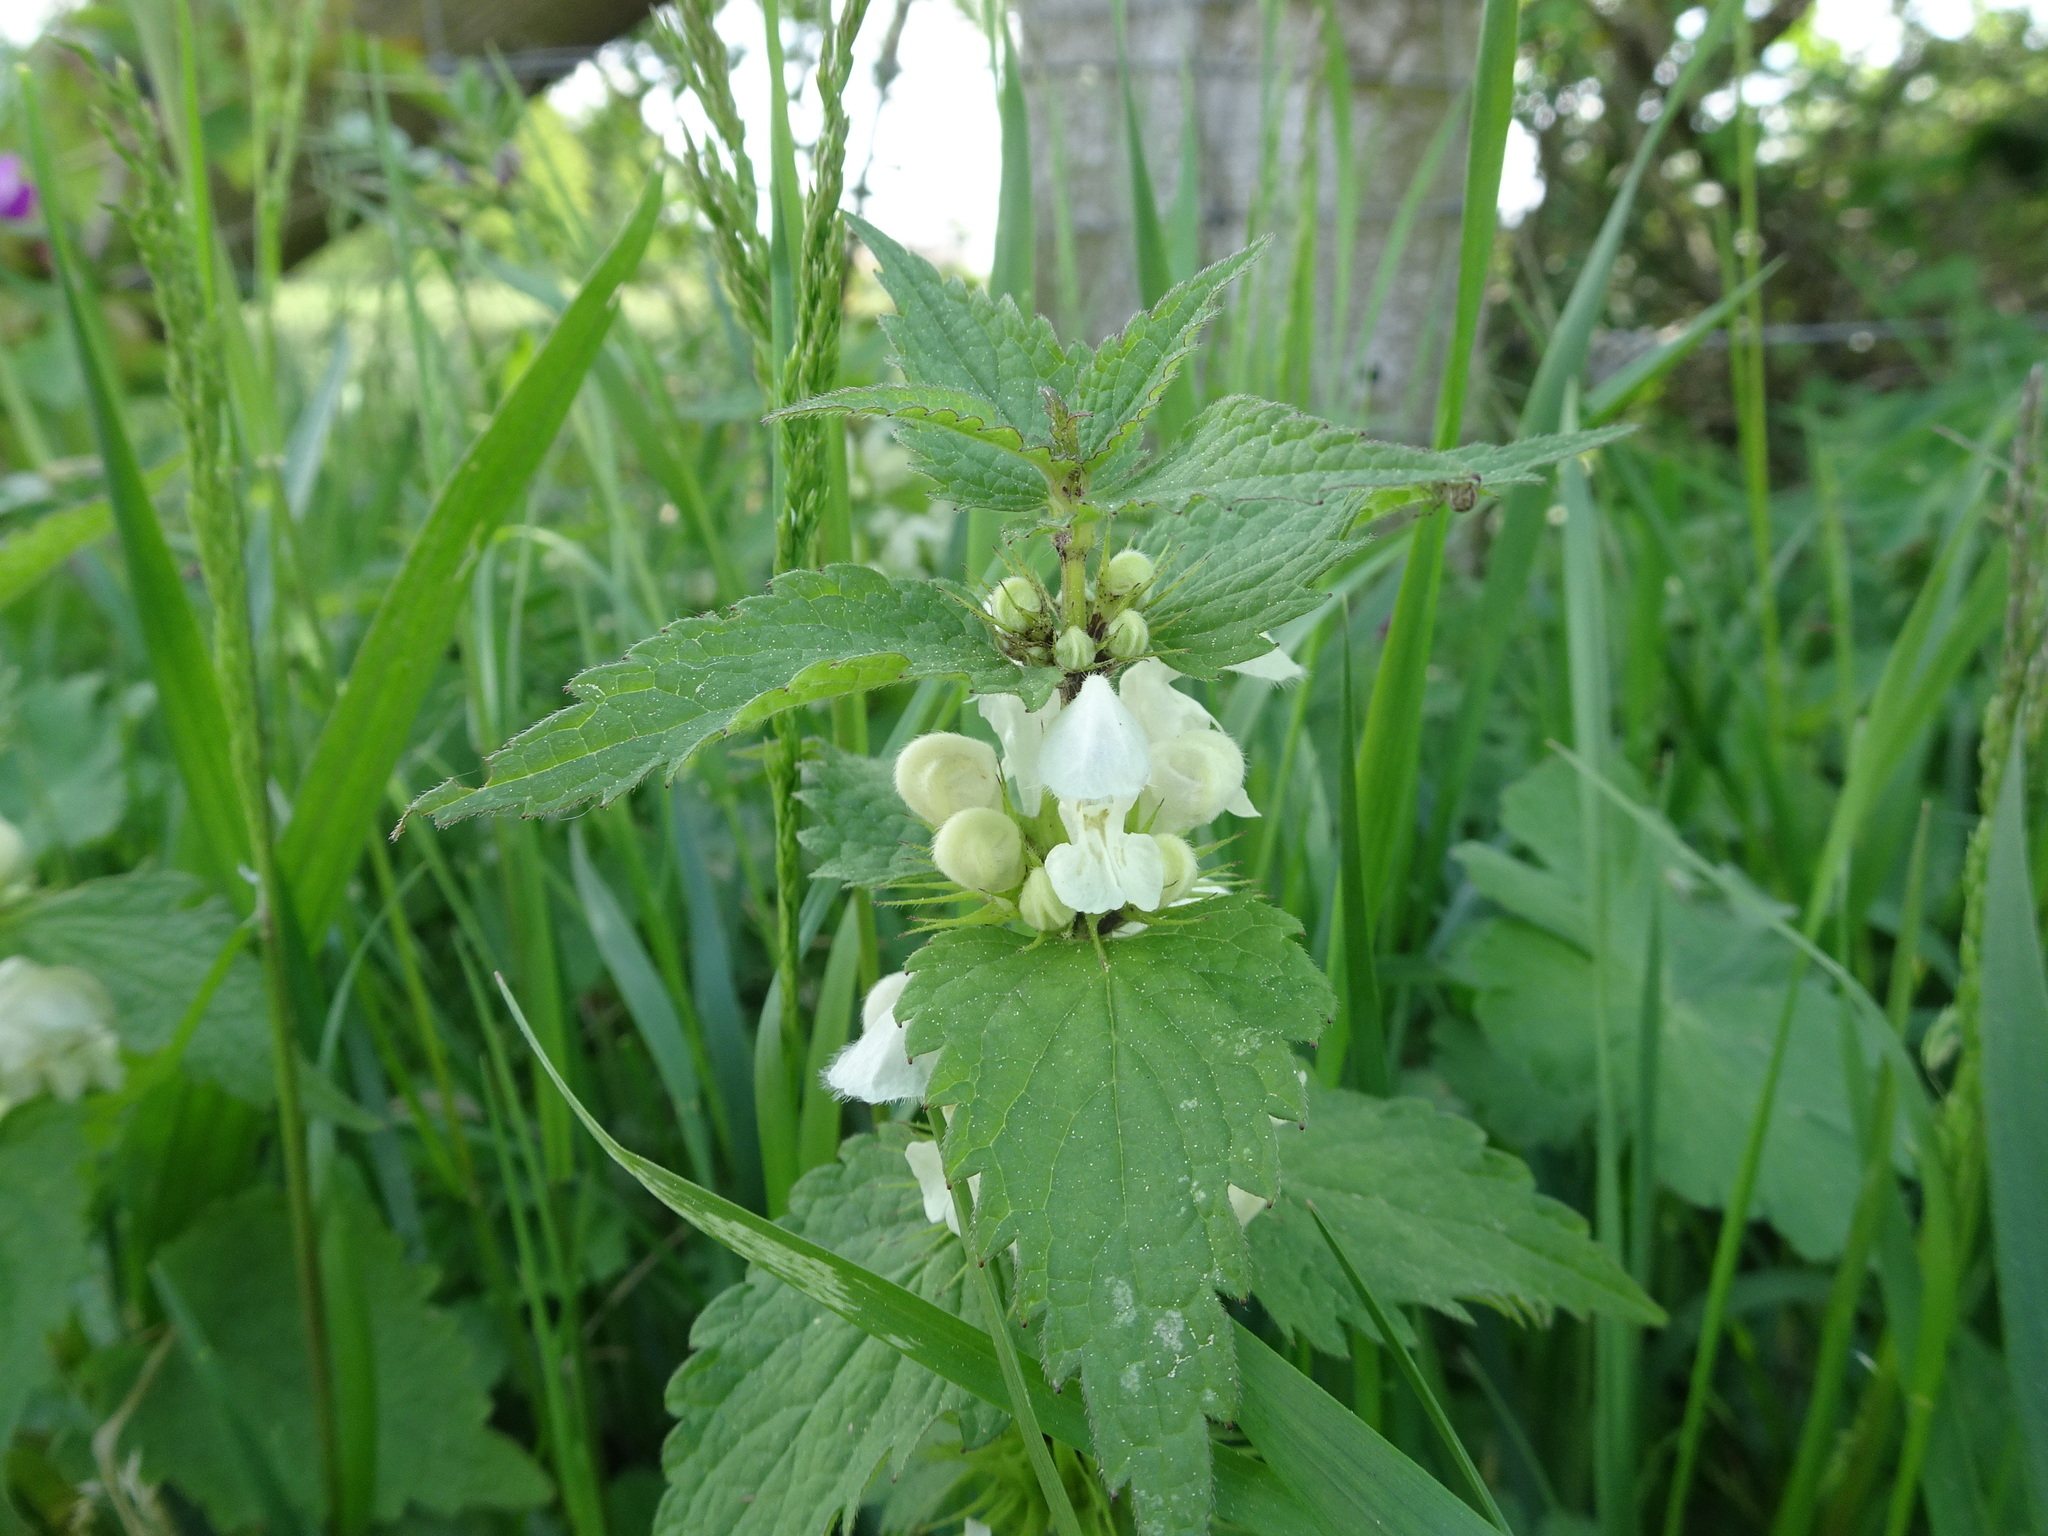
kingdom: Plantae
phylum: Tracheophyta
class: Magnoliopsida
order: Lamiales
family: Lamiaceae
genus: Lamium
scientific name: Lamium album
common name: White dead-nettle
